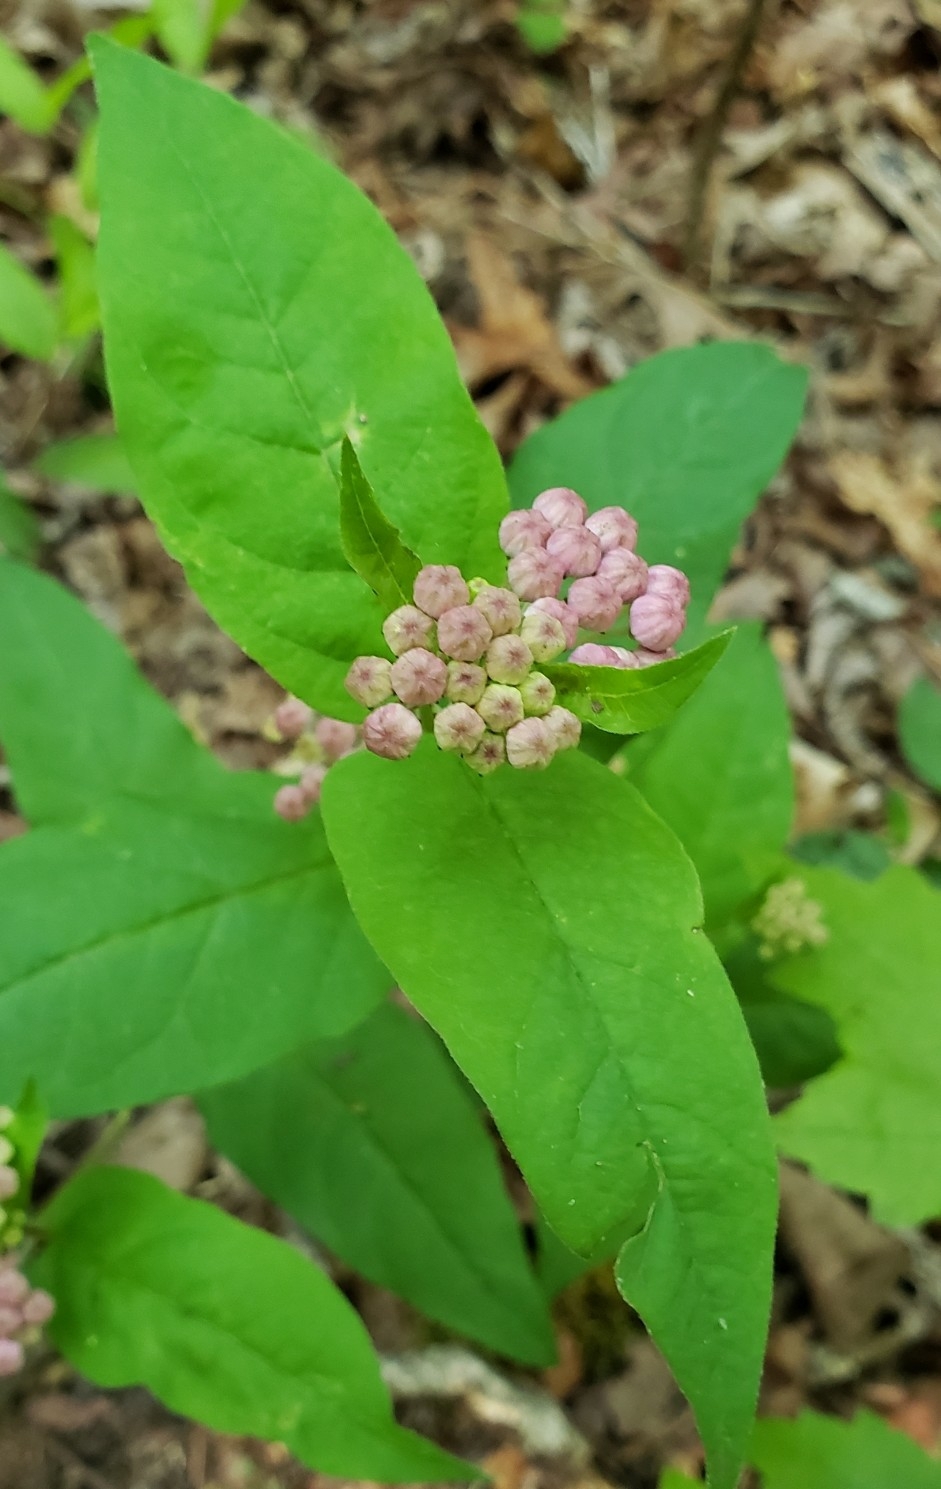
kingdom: Plantae
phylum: Tracheophyta
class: Magnoliopsida
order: Gentianales
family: Apocynaceae
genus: Asclepias
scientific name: Asclepias quadrifolia
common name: Whorled milkweed
